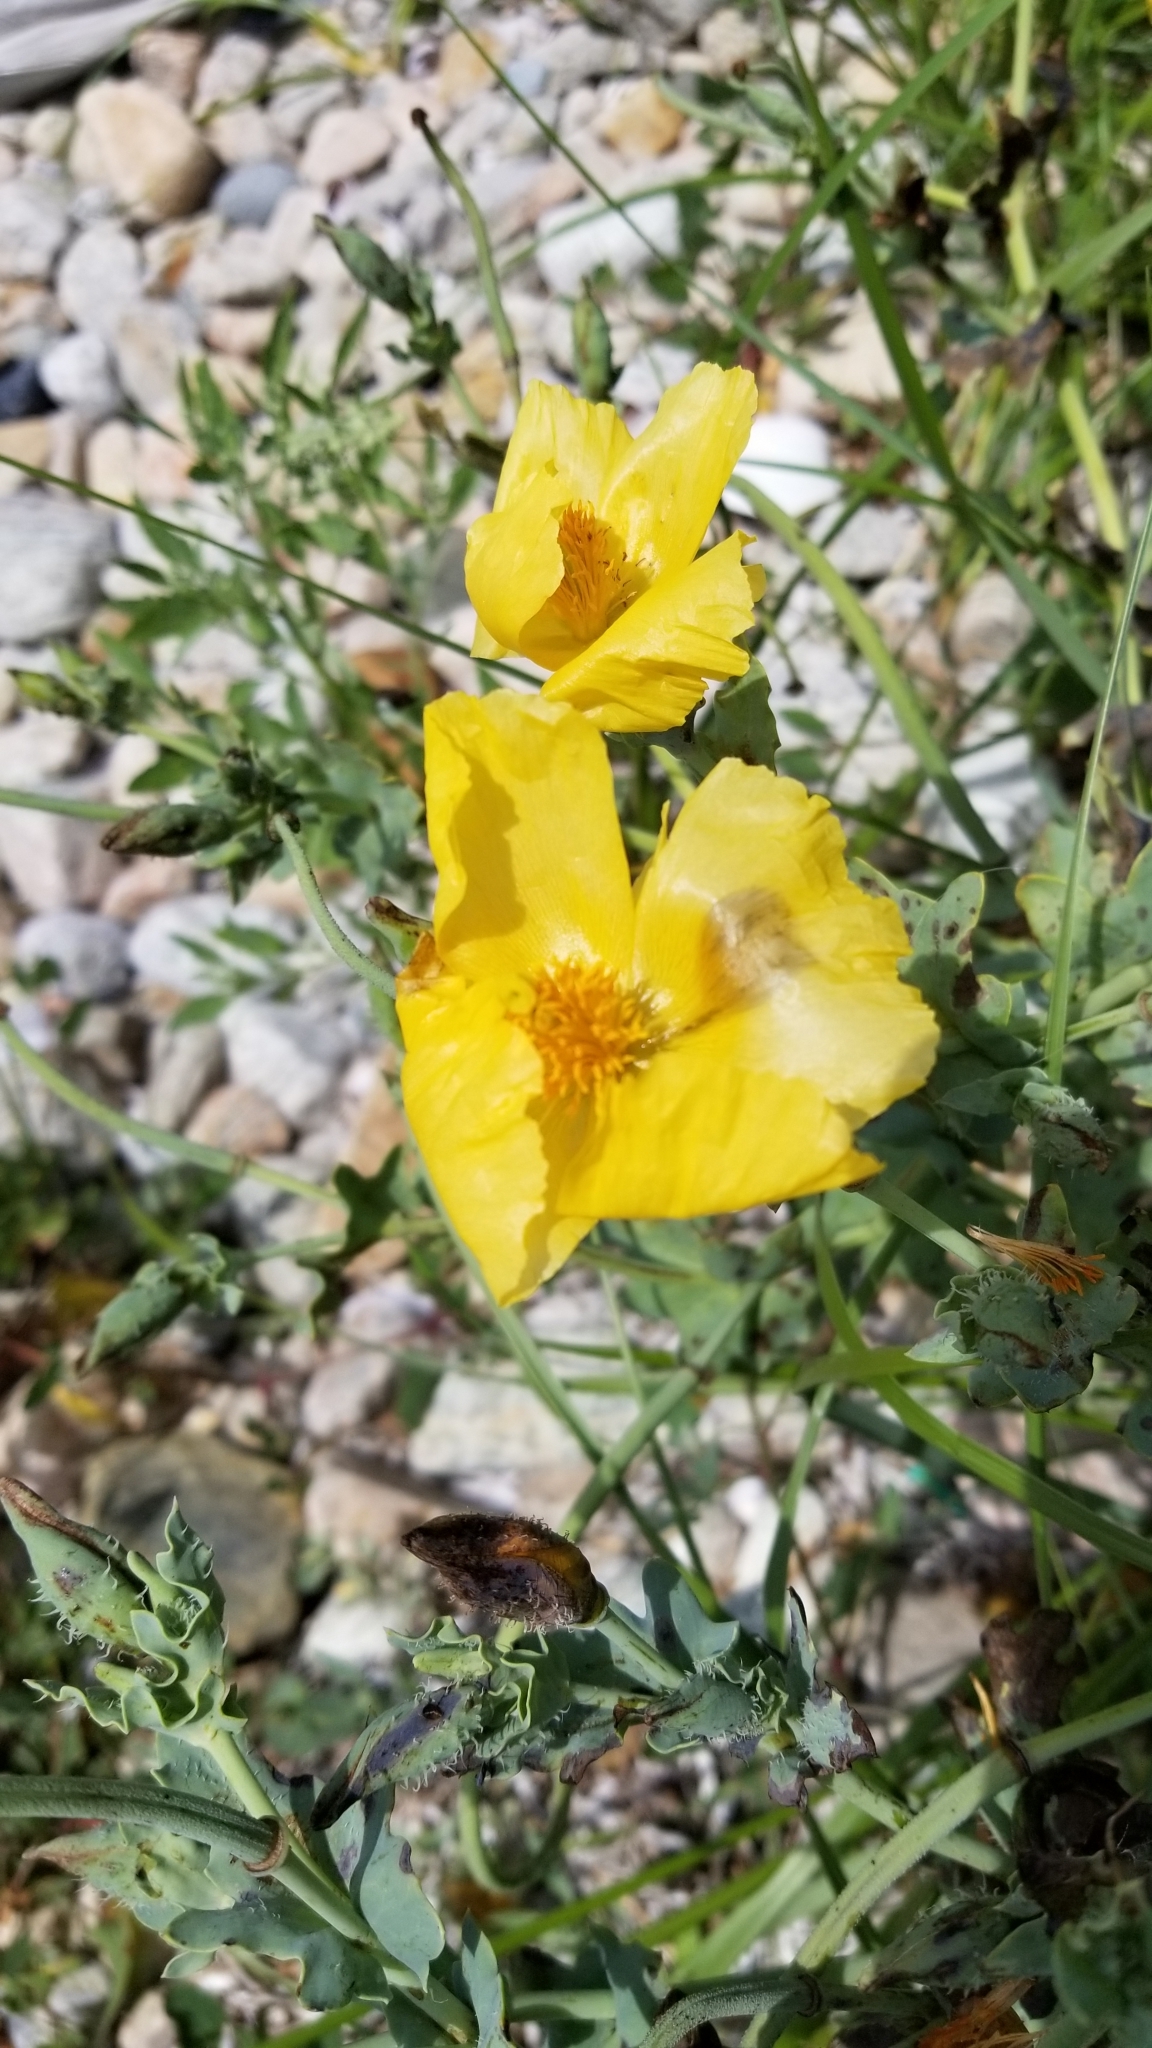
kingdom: Plantae
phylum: Tracheophyta
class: Magnoliopsida
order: Ranunculales
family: Papaveraceae
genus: Glaucium
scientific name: Glaucium flavum
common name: Yellow horned-poppy
